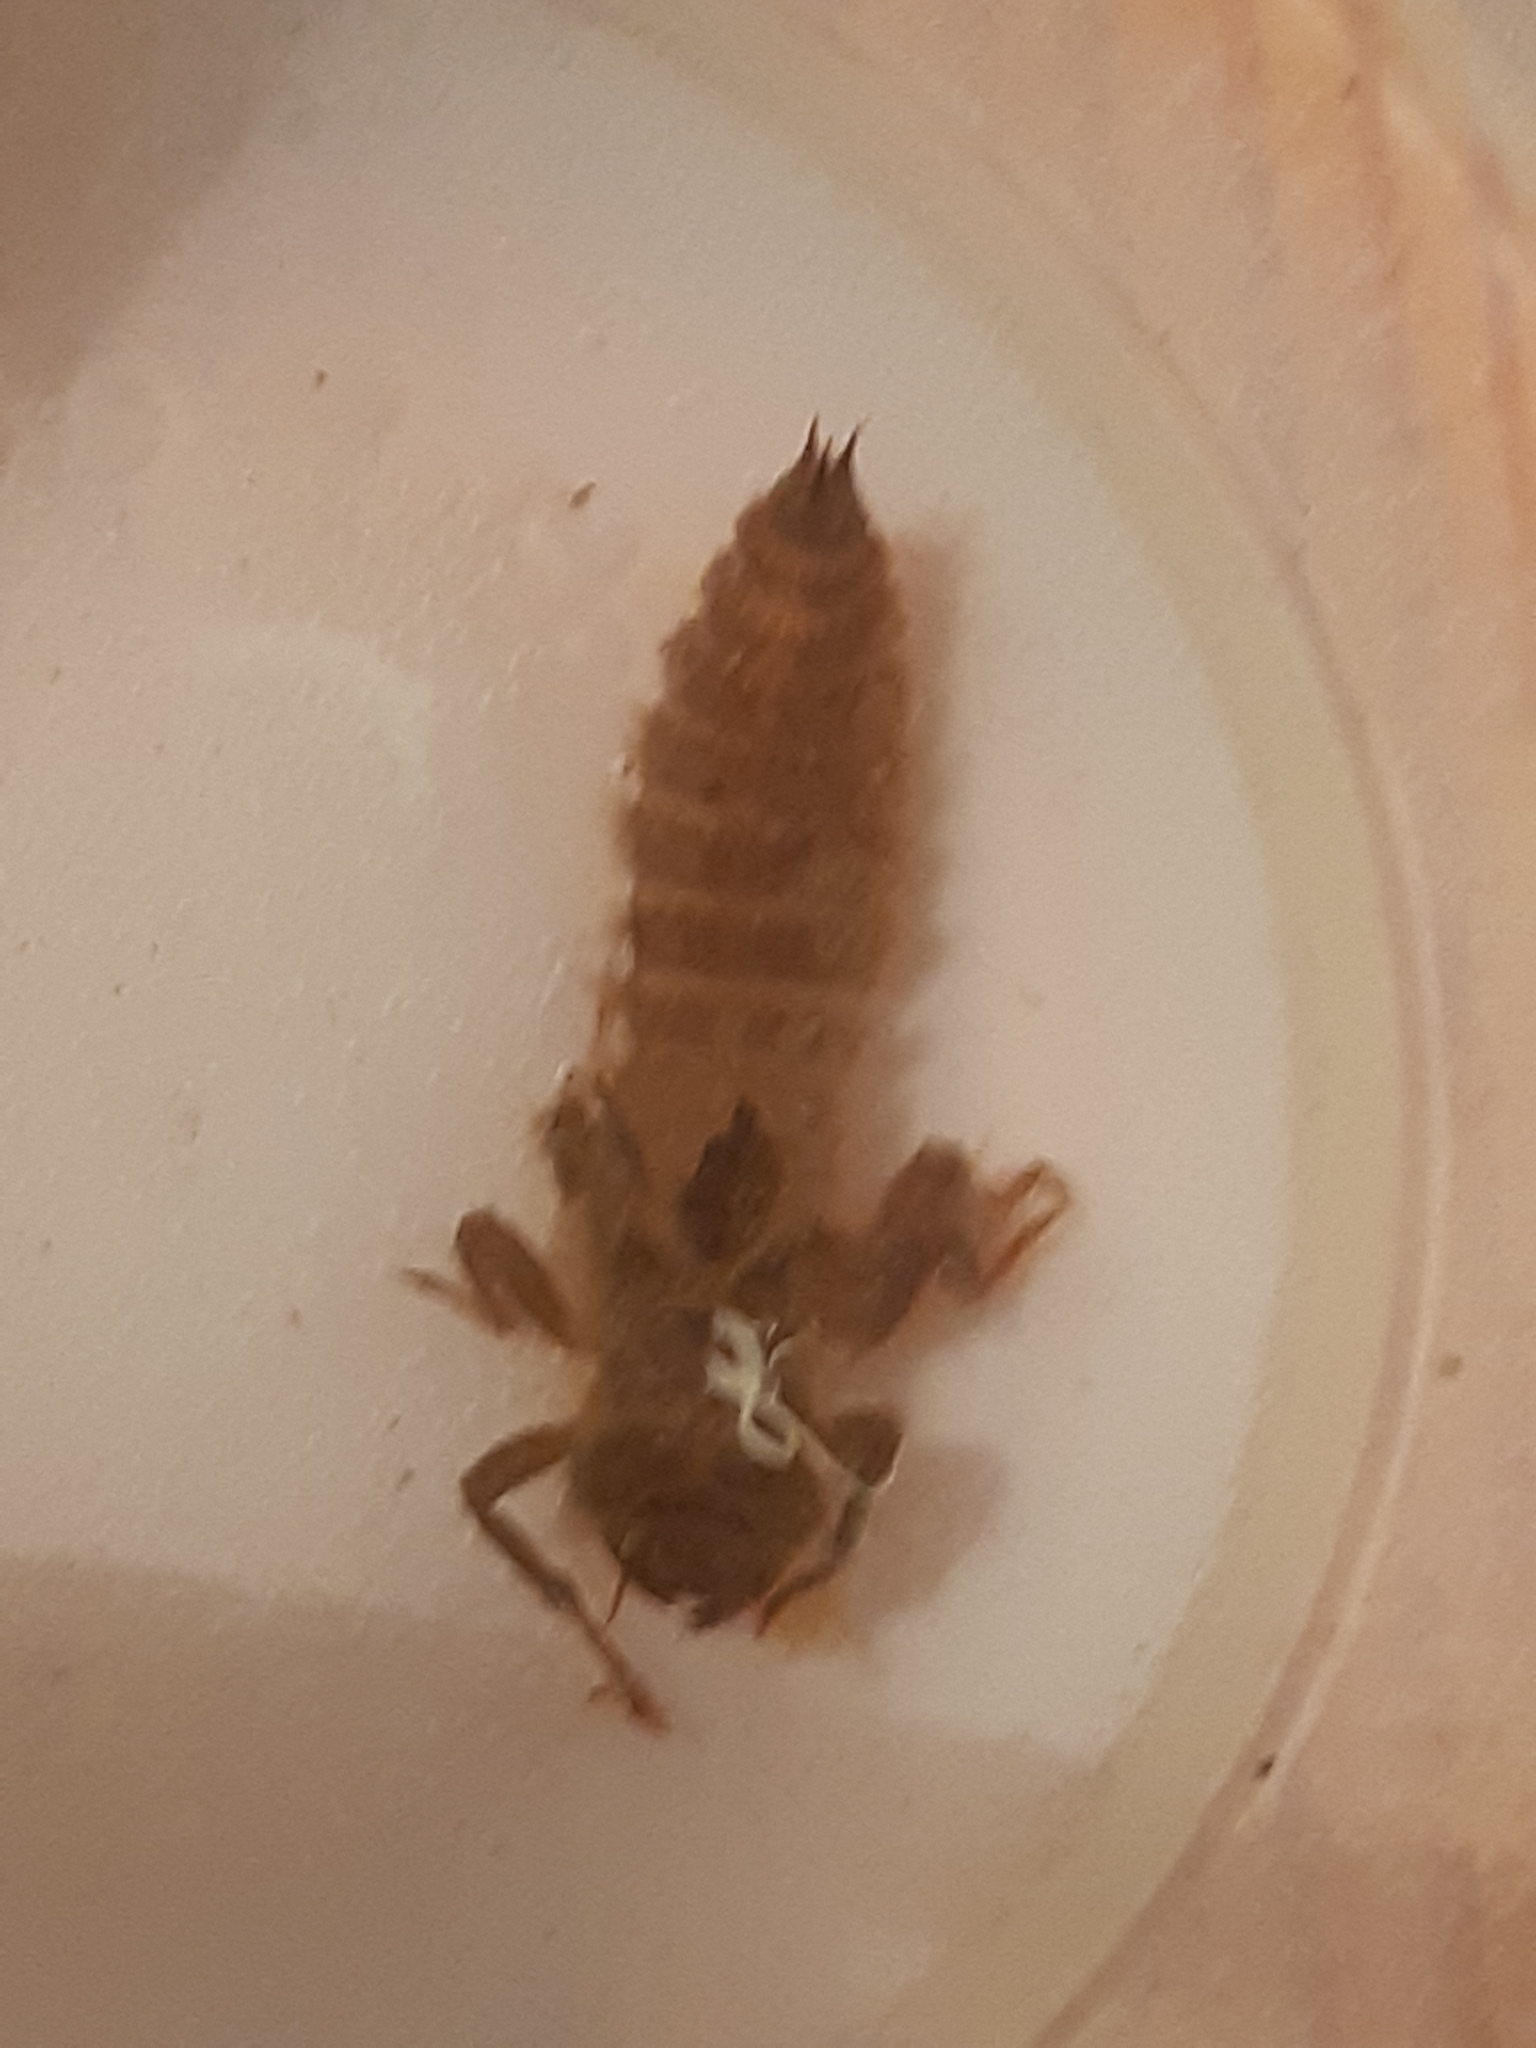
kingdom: Animalia
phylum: Arthropoda
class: Insecta
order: Odonata
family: Cordulegastridae
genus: Cordulegaster
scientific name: Cordulegaster
